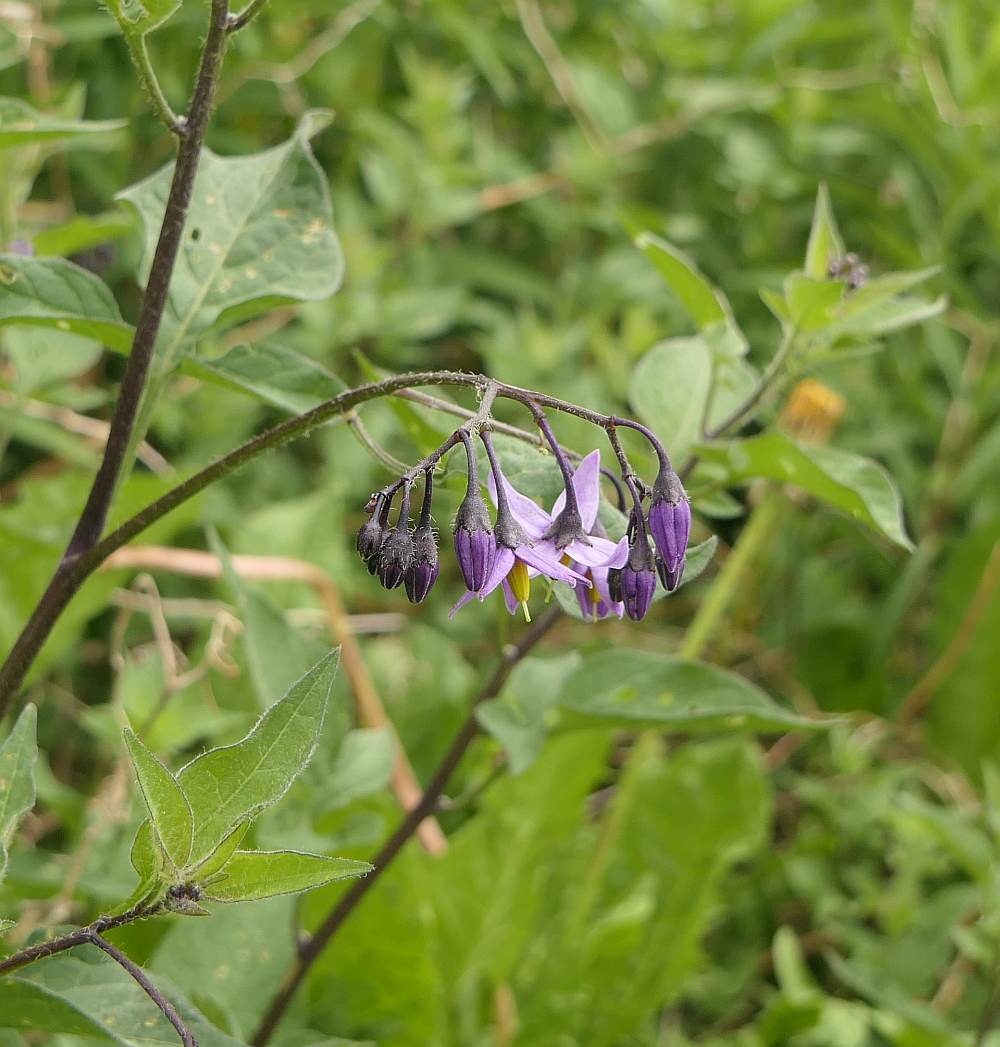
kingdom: Plantae
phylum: Tracheophyta
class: Magnoliopsida
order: Solanales
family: Solanaceae
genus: Solanum
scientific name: Solanum dulcamara
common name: Climbing nightshade
